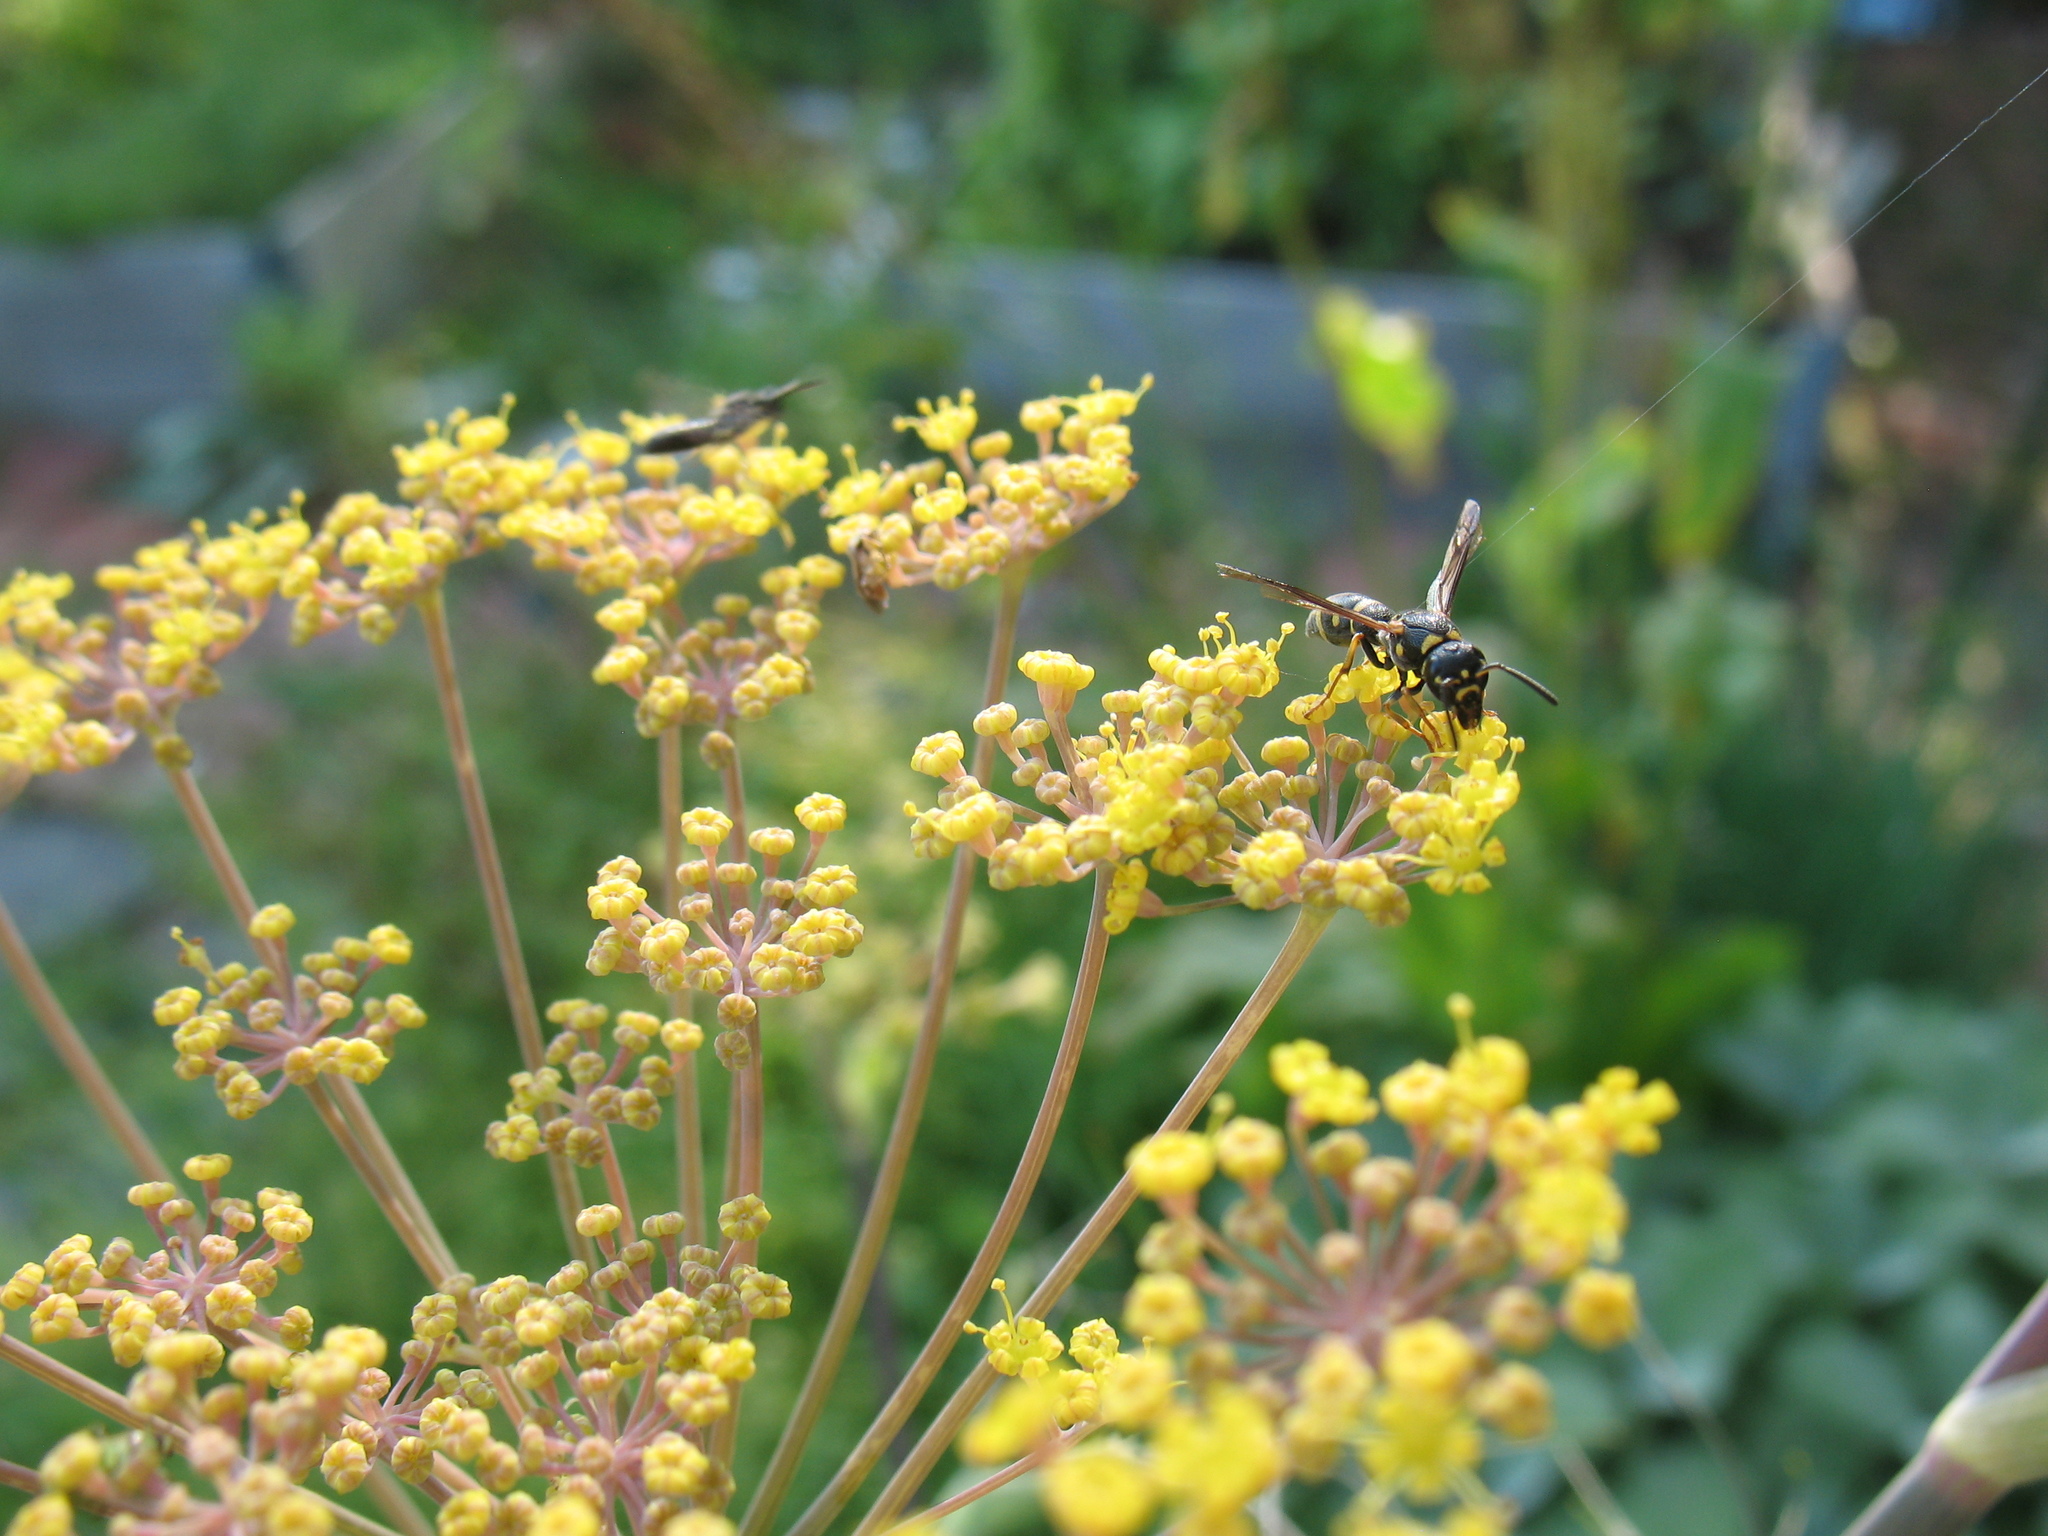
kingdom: Plantae
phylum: Tracheophyta
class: Magnoliopsida
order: Apiales
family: Apiaceae
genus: Foeniculum
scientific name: Foeniculum vulgare
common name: Fennel
